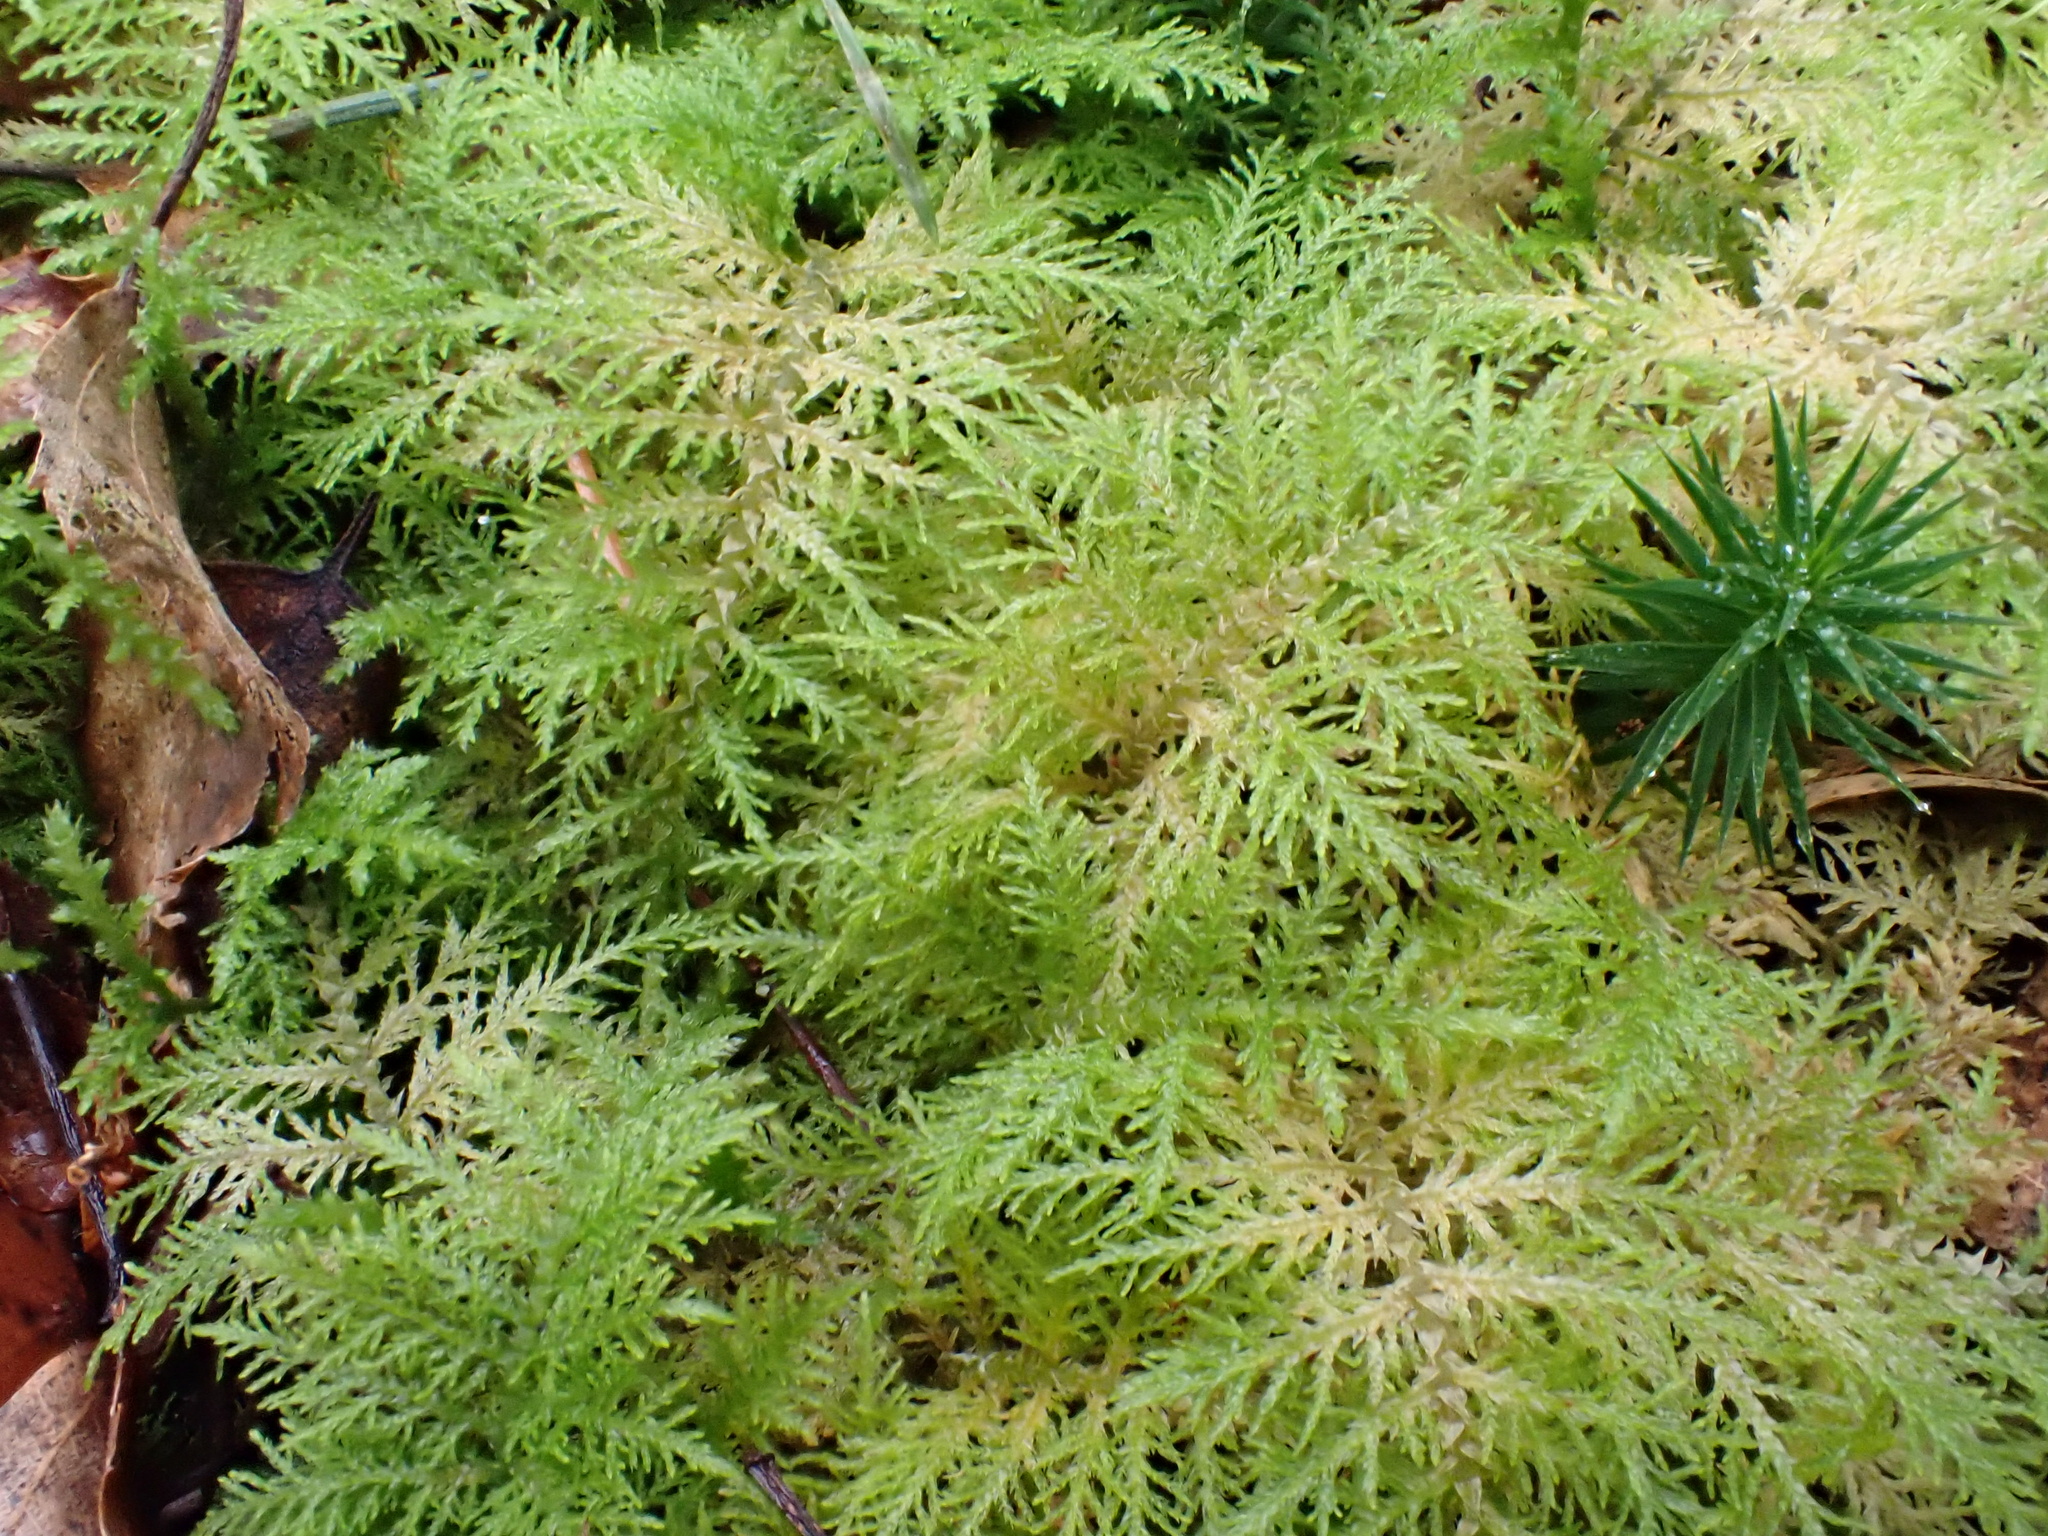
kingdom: Plantae
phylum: Bryophyta
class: Bryopsida
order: Hypnales
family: Thuidiaceae
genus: Thuidium
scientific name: Thuidium tamariscinum
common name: Common tamarisk-moss
